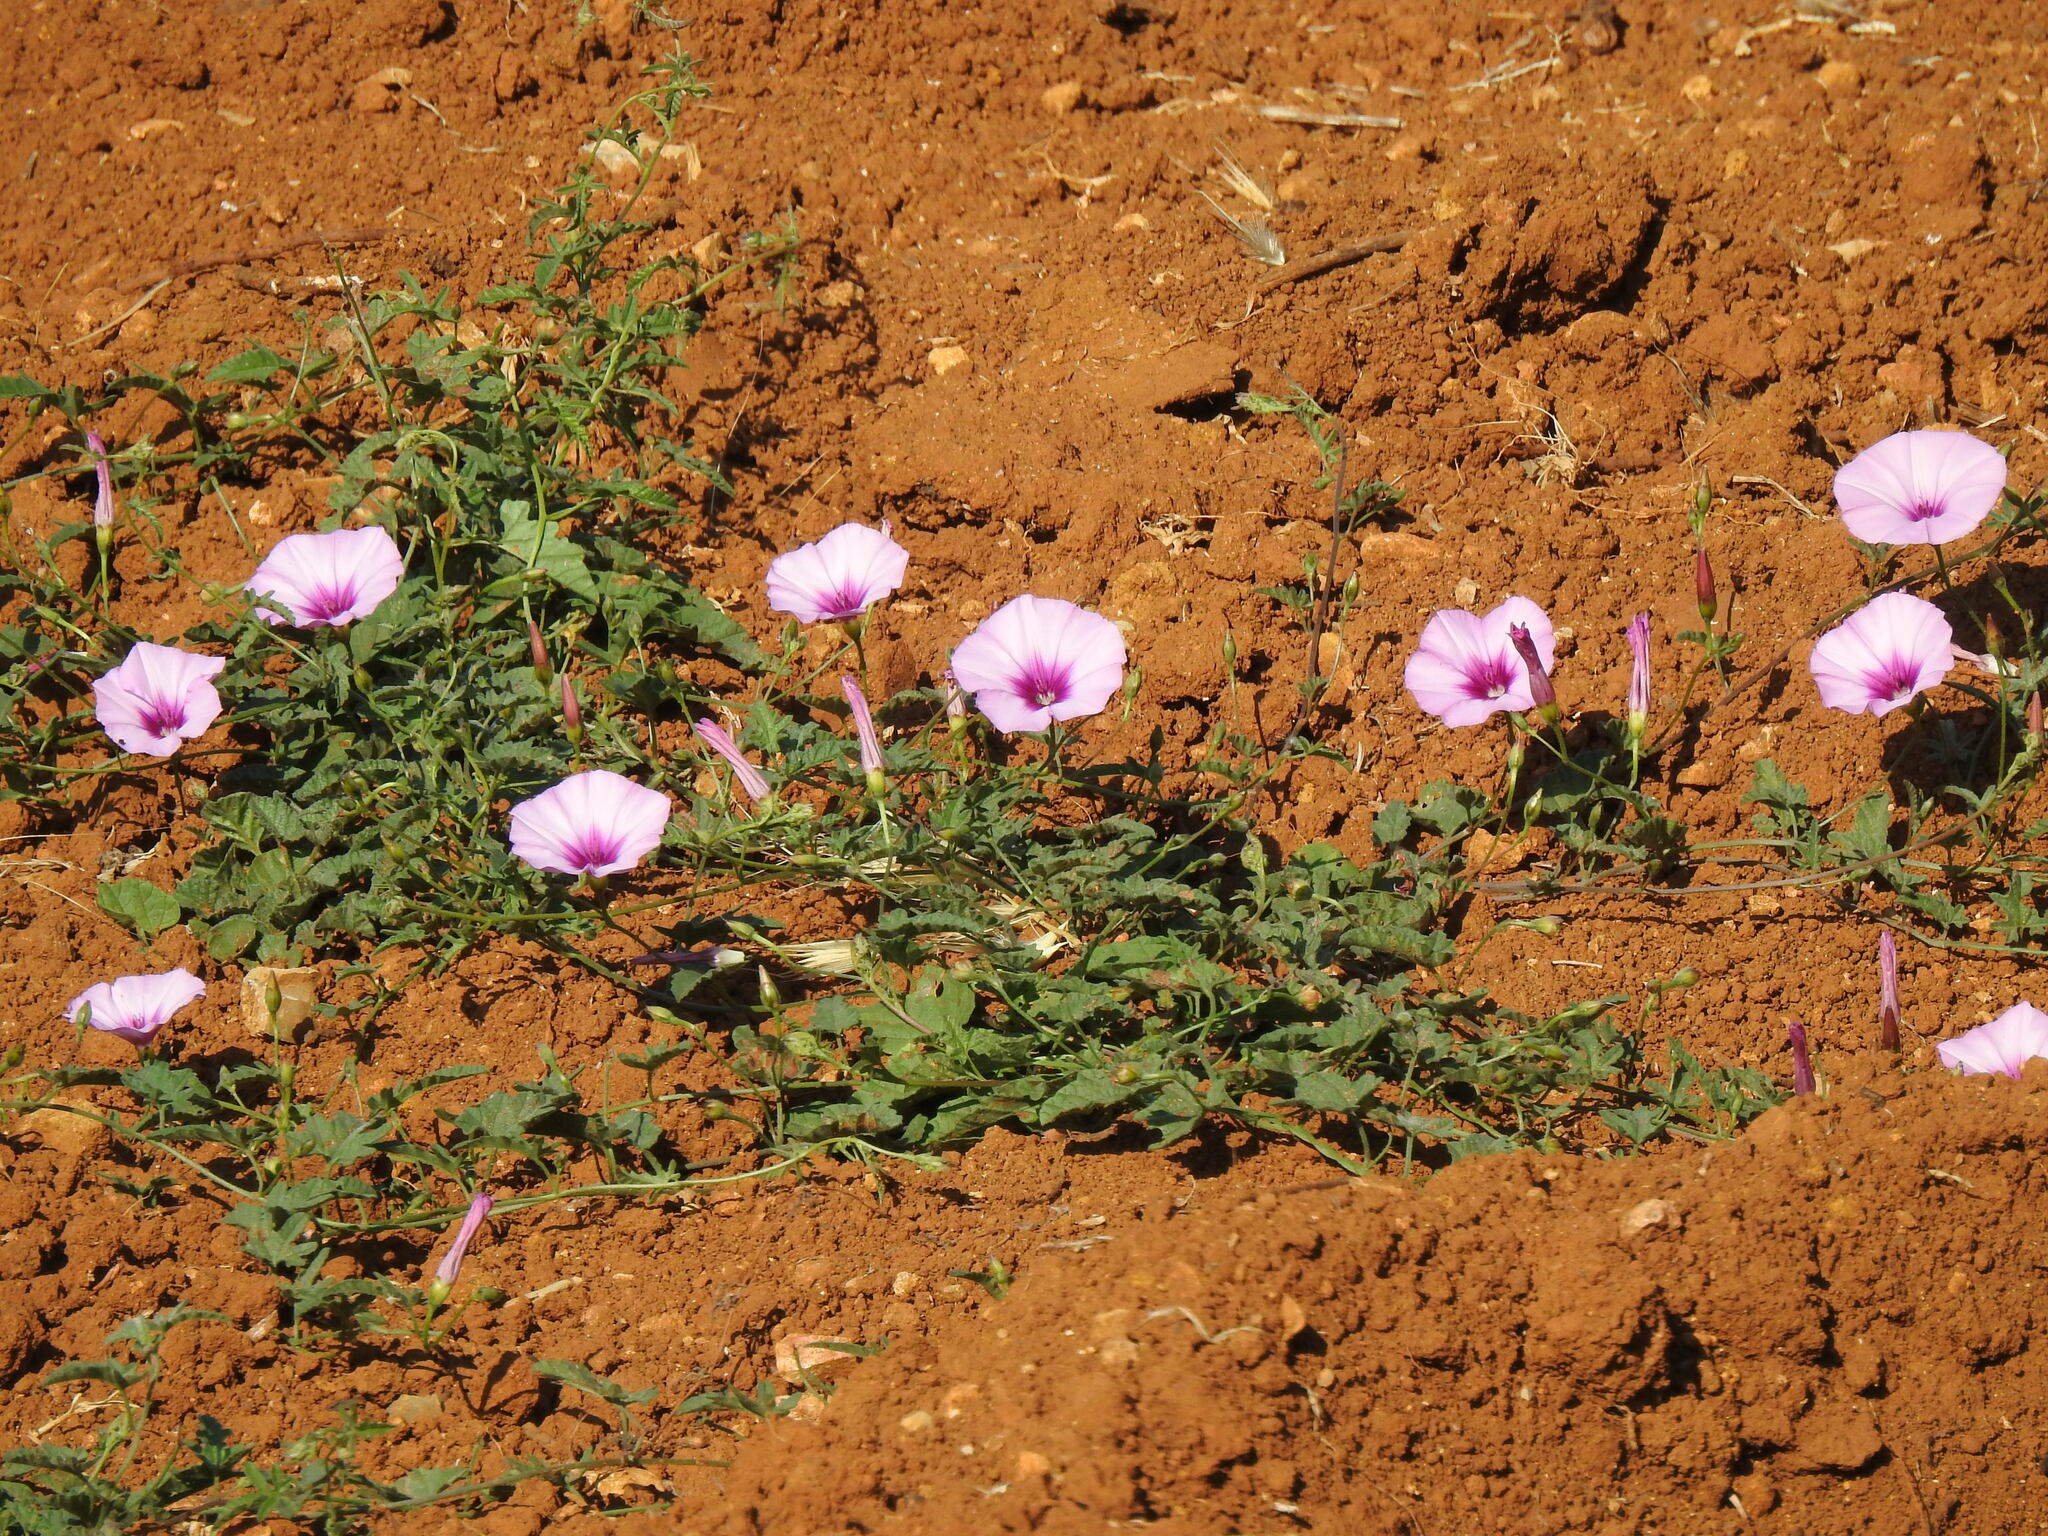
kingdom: Plantae
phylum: Tracheophyta
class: Magnoliopsida
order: Solanales
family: Convolvulaceae
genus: Convolvulus
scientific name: Convolvulus althaeoides
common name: Mallow bindweed
